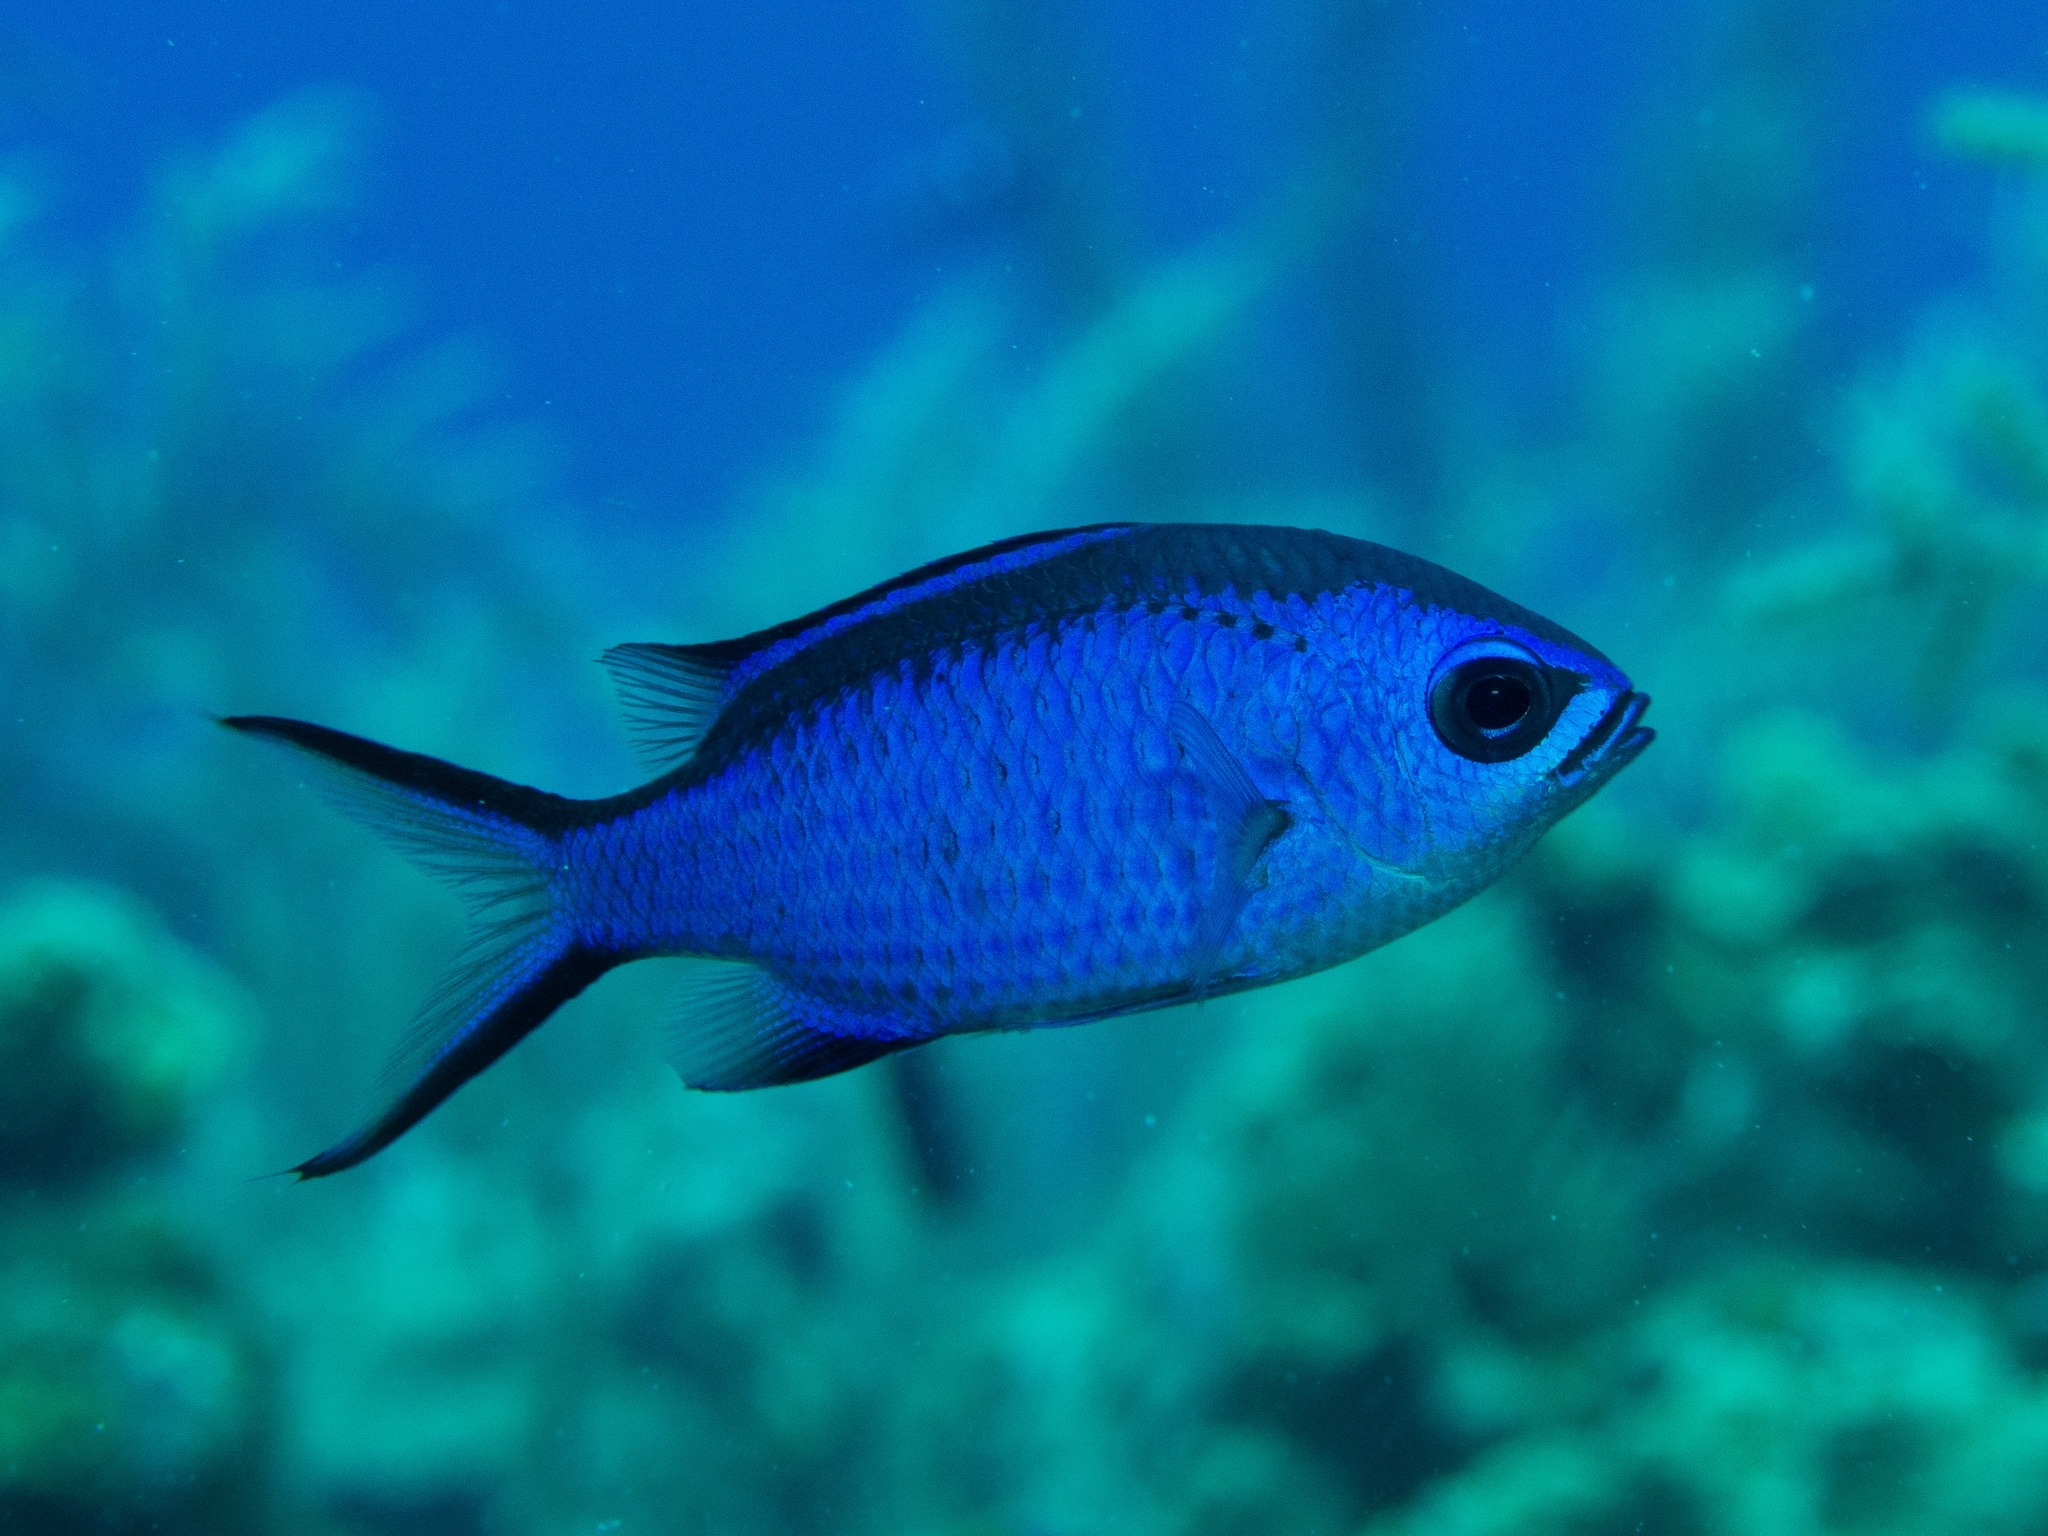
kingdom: Animalia
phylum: Chordata
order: Perciformes
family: Pomacentridae
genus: Chromis
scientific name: Chromis cyanea
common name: Blue chromis
